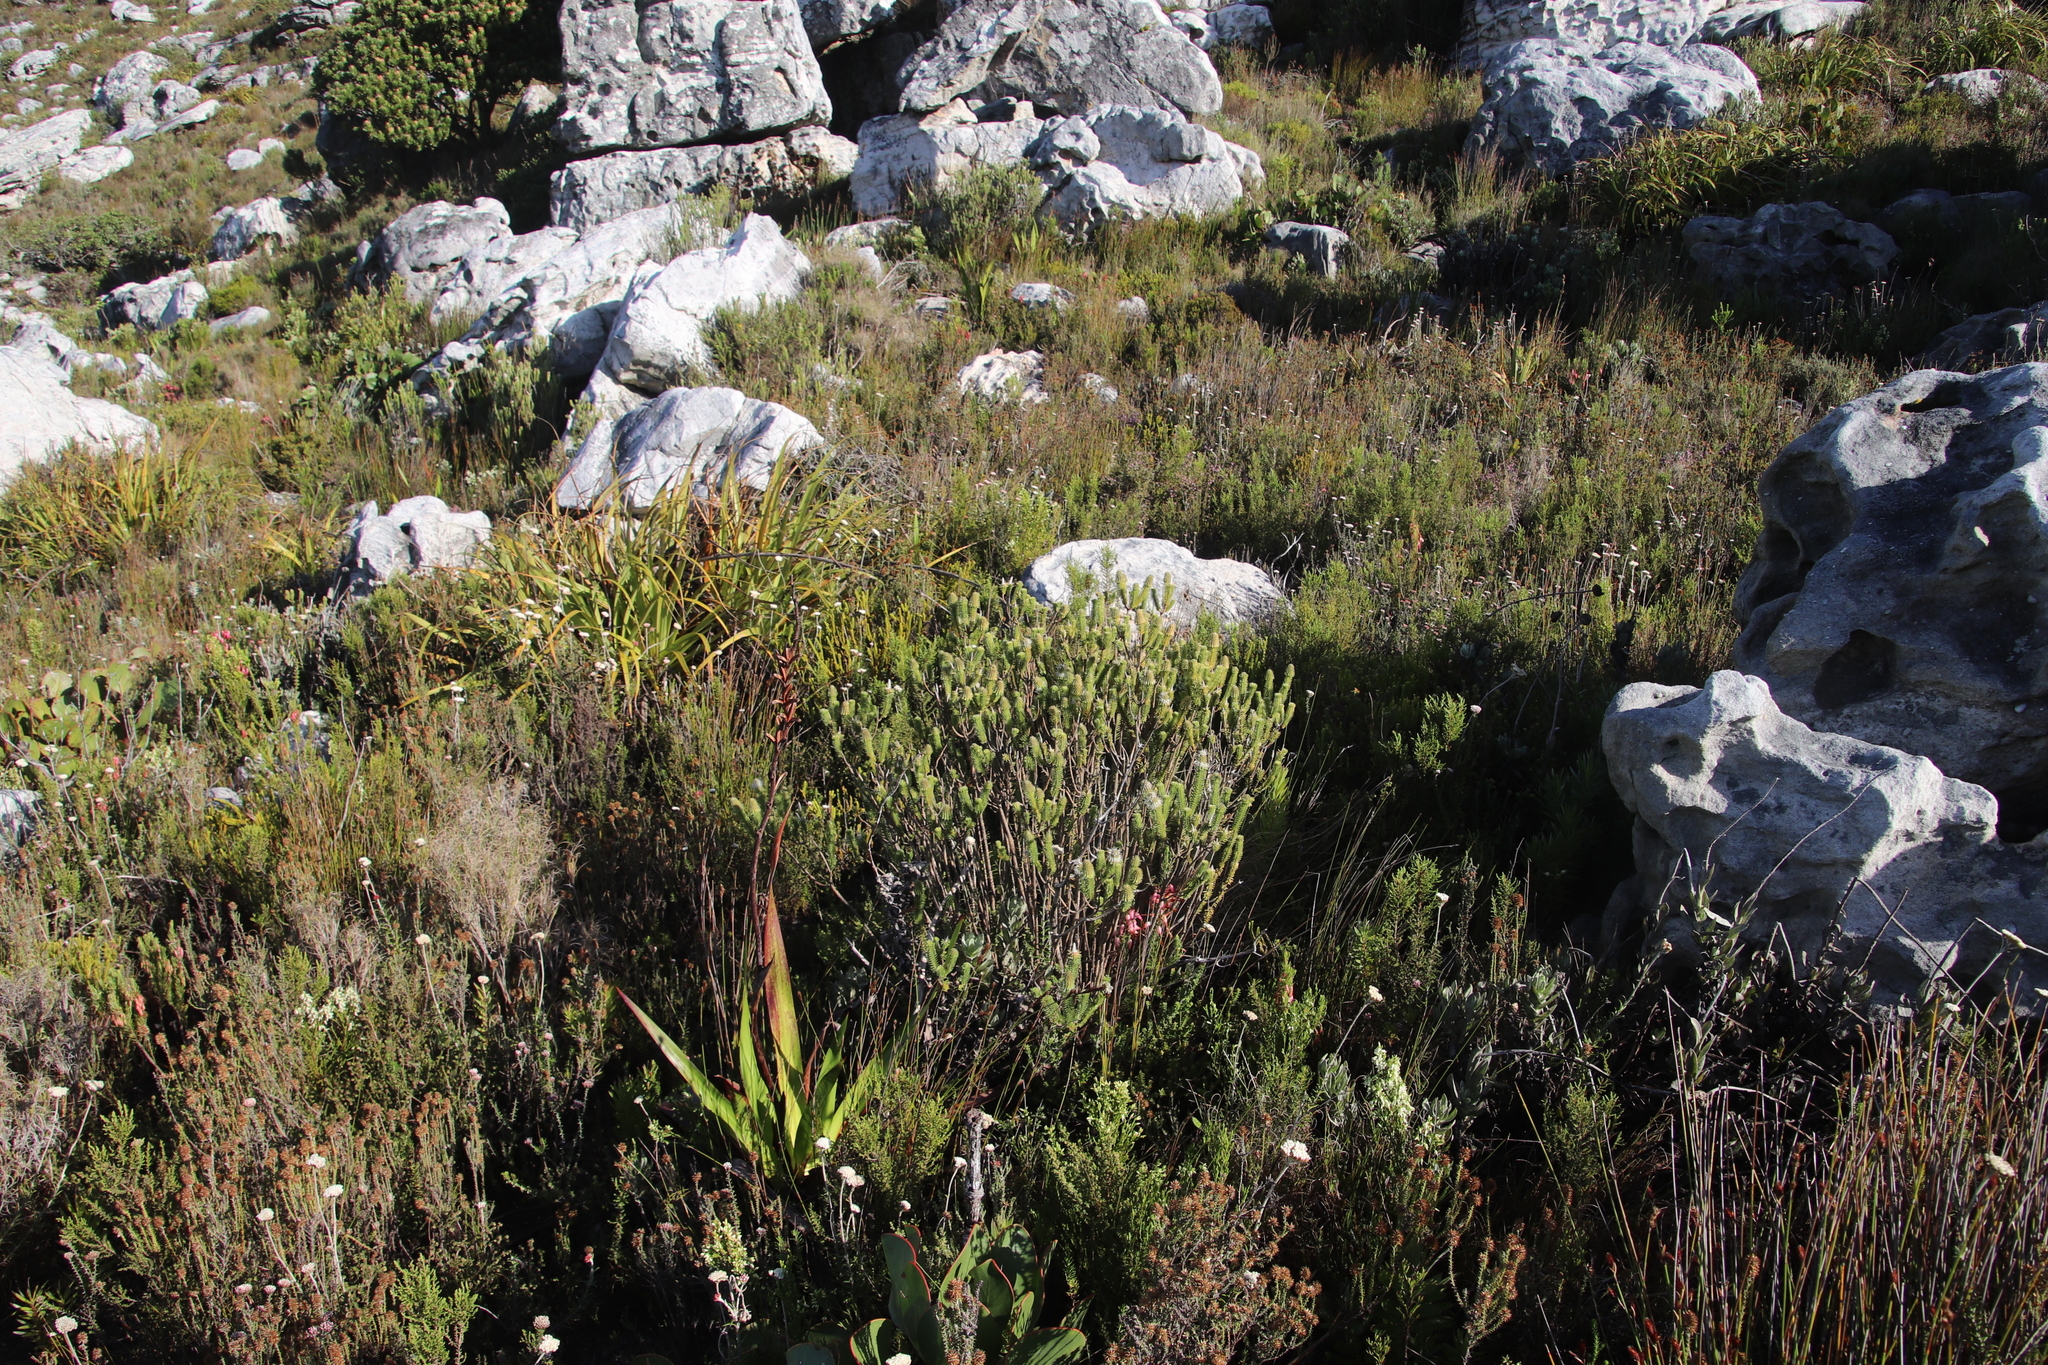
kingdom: Plantae
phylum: Tracheophyta
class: Magnoliopsida
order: Lamiales
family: Stilbaceae
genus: Stilbe
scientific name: Stilbe vestita
